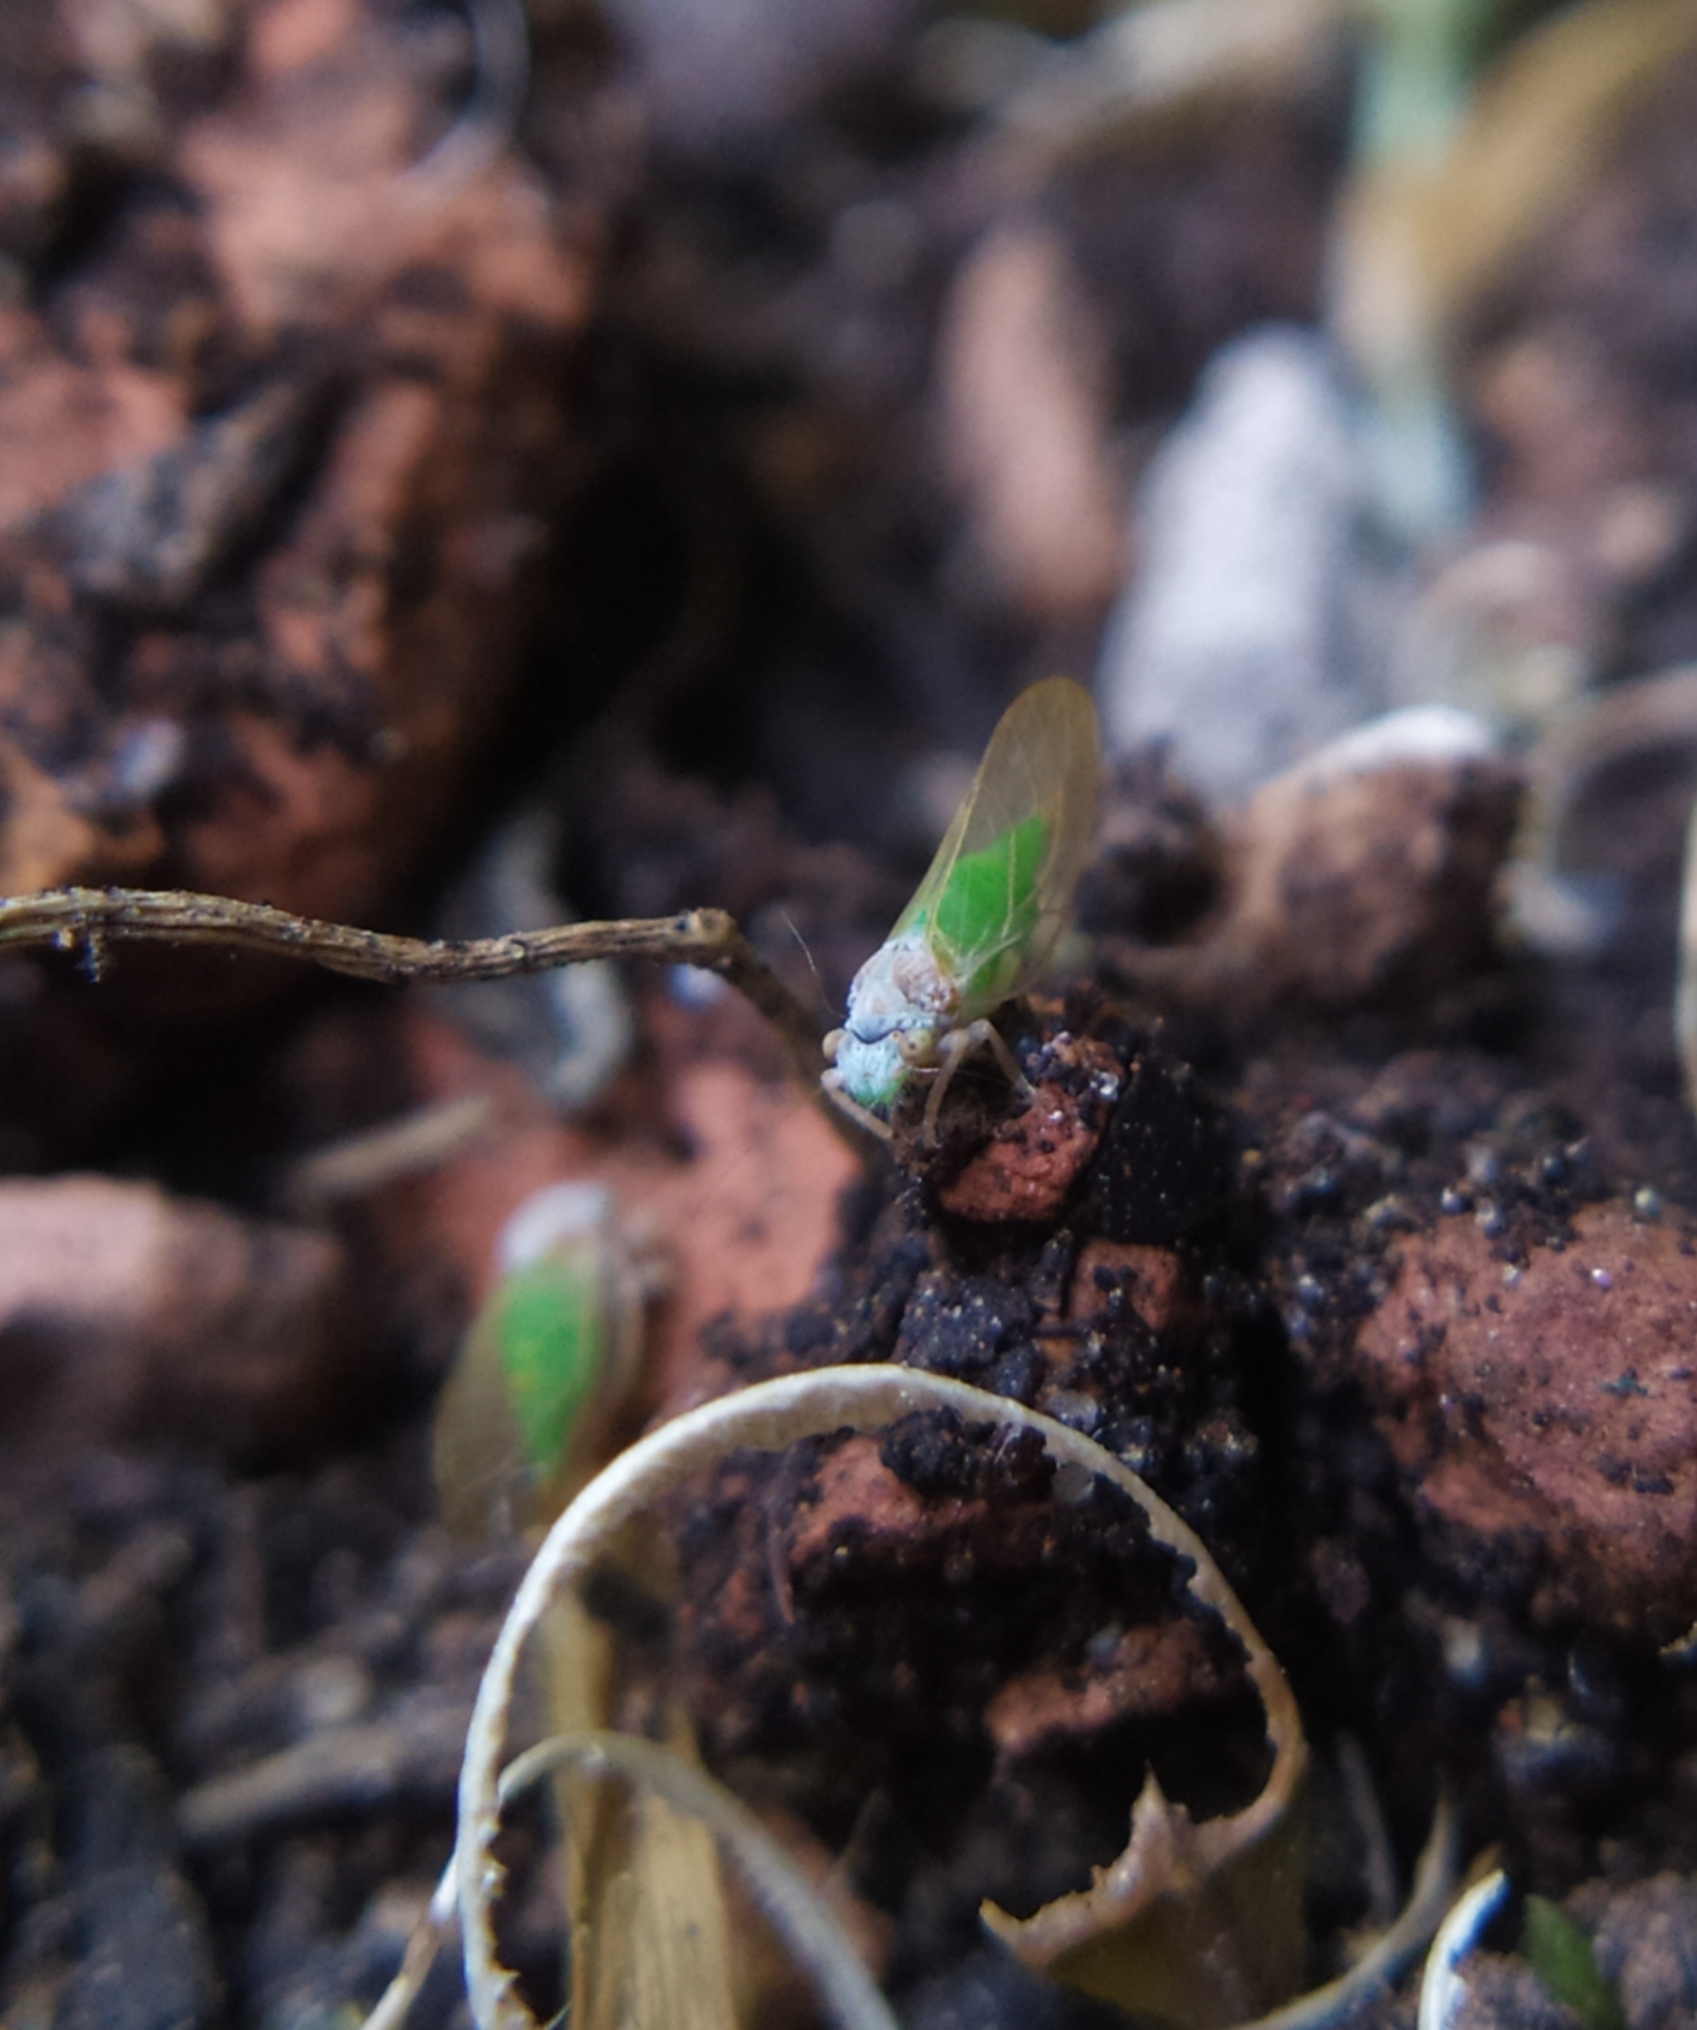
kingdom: Animalia
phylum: Arthropoda
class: Insecta
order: Hemiptera
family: Psyllidae
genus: Psylla
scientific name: Psylla buxi
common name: Boxwood psyllid
